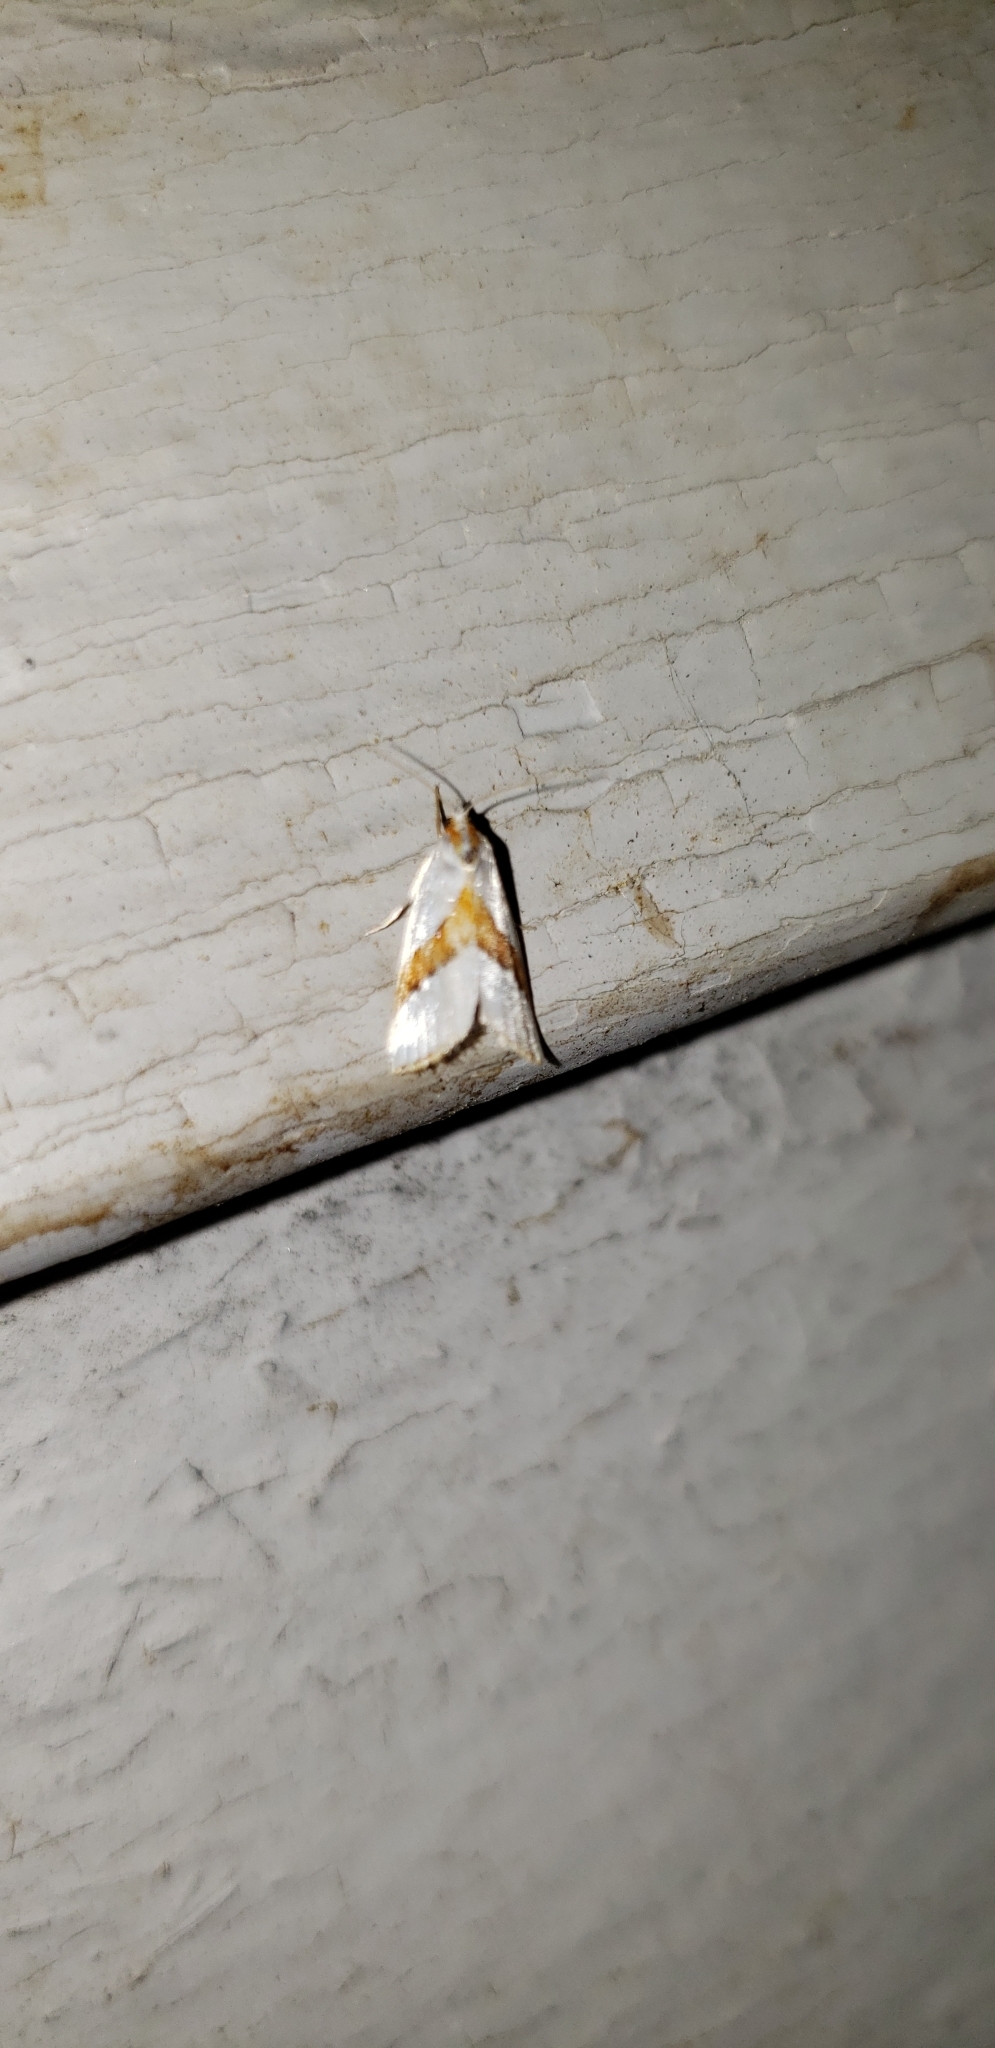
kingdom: Animalia
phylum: Arthropoda
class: Insecta
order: Lepidoptera
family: Crambidae
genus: Vaxi
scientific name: Vaxi critica
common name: Straight-lined vaxi moth
